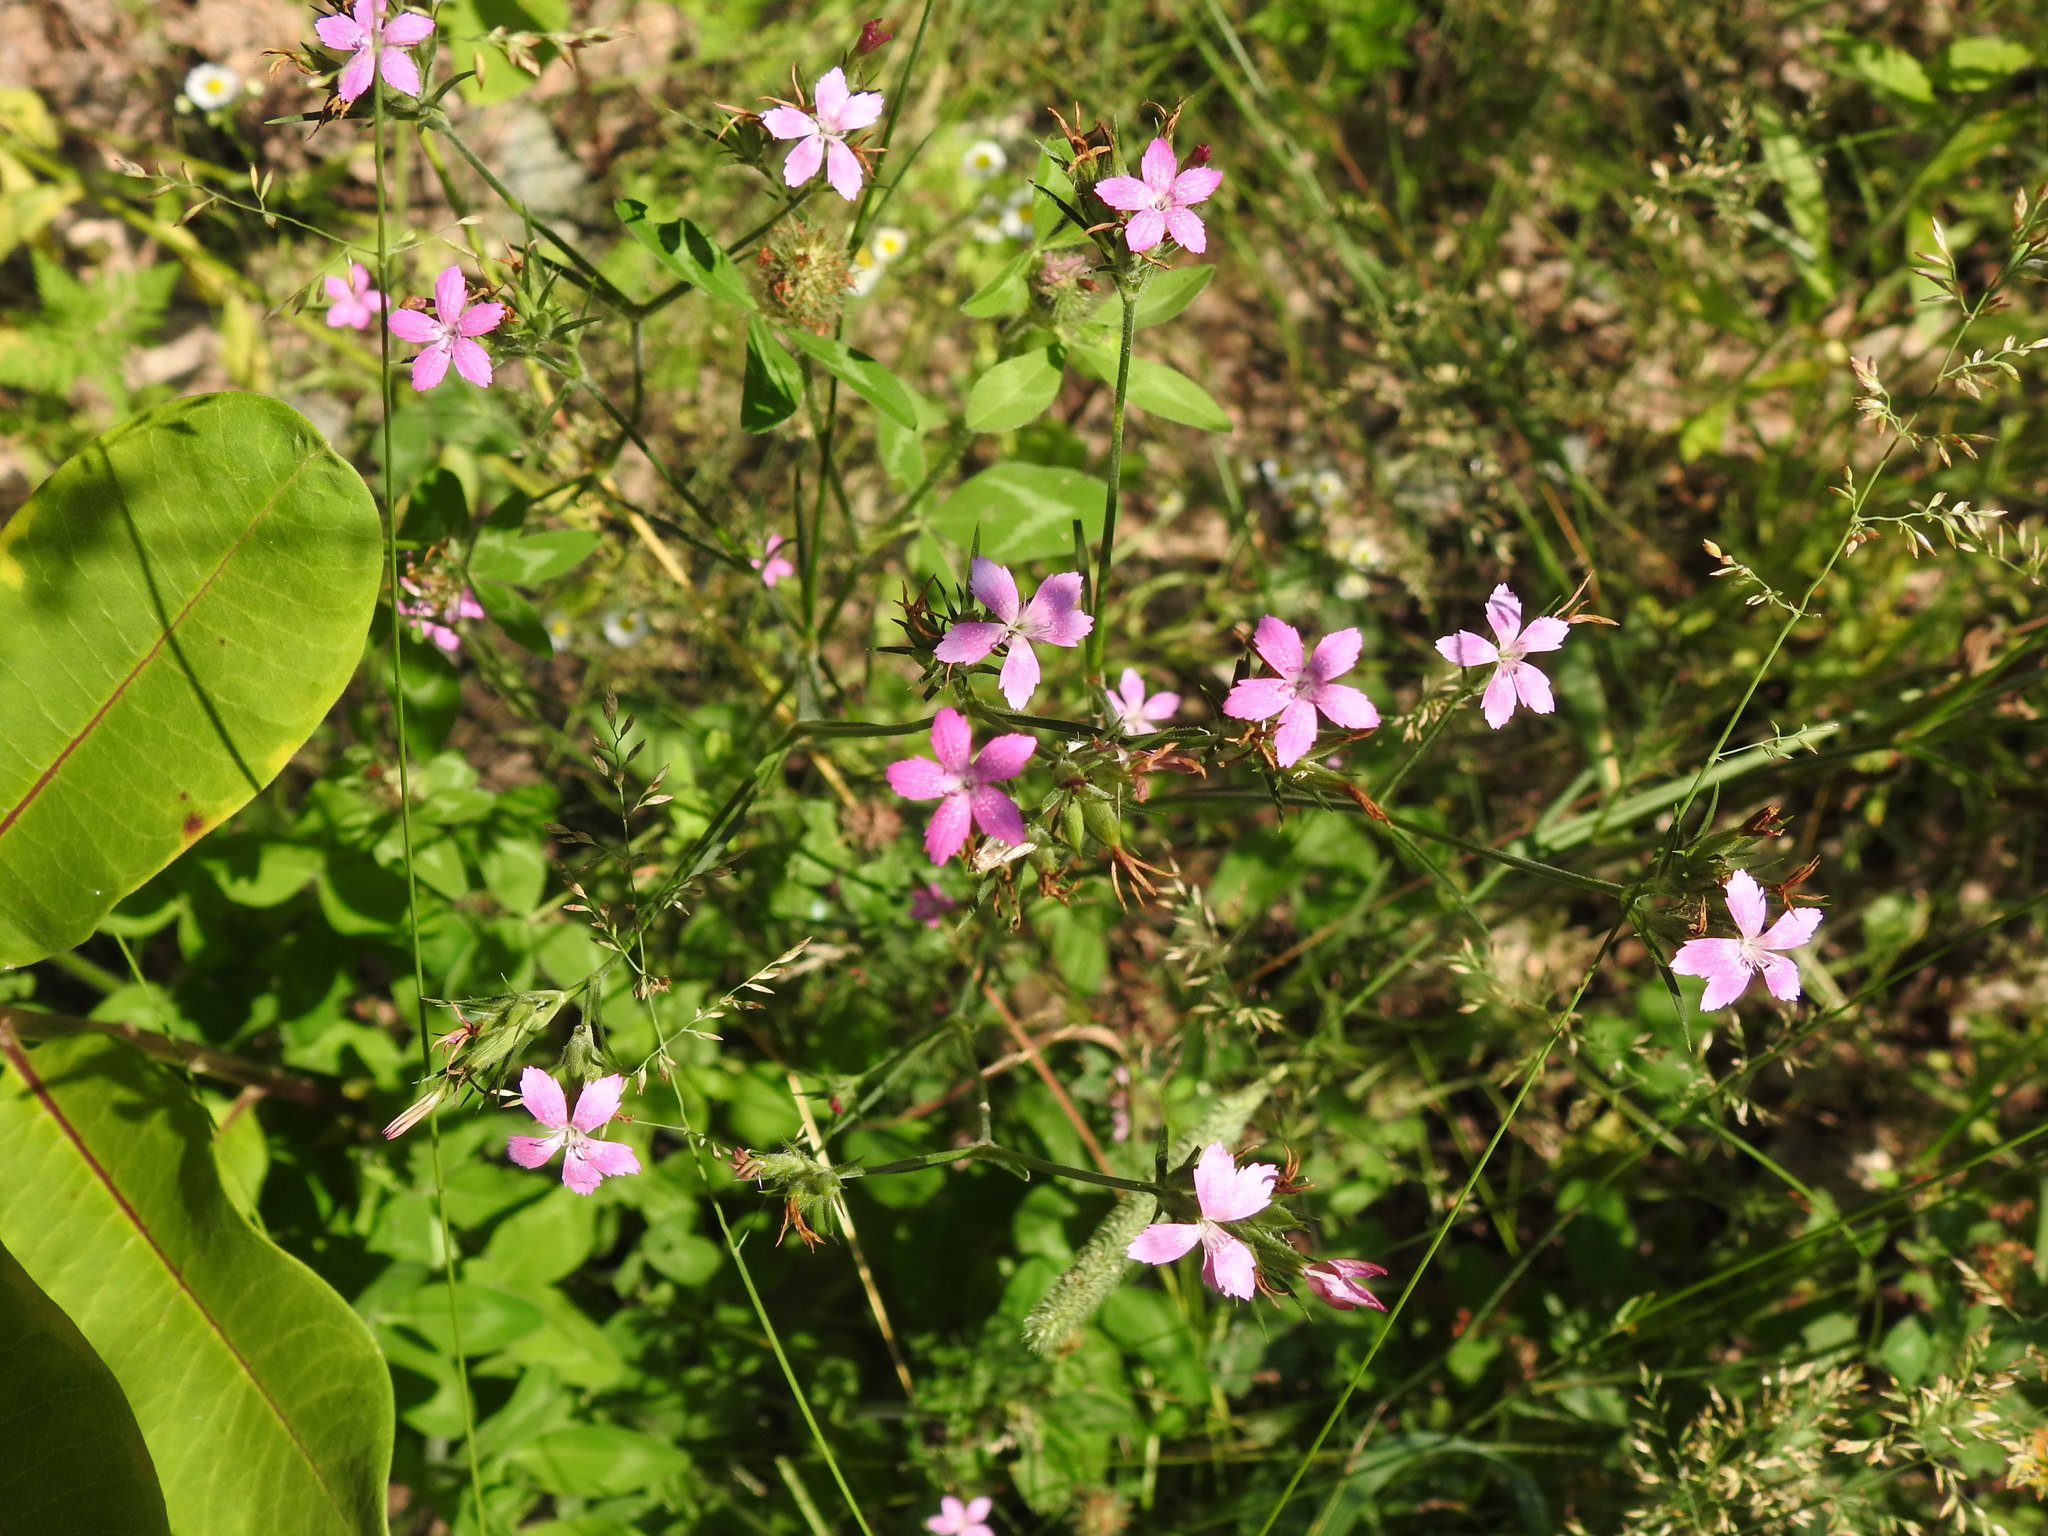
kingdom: Plantae
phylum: Tracheophyta
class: Magnoliopsida
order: Caryophyllales
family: Caryophyllaceae
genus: Dianthus
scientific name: Dianthus armeria
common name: Deptford pink
